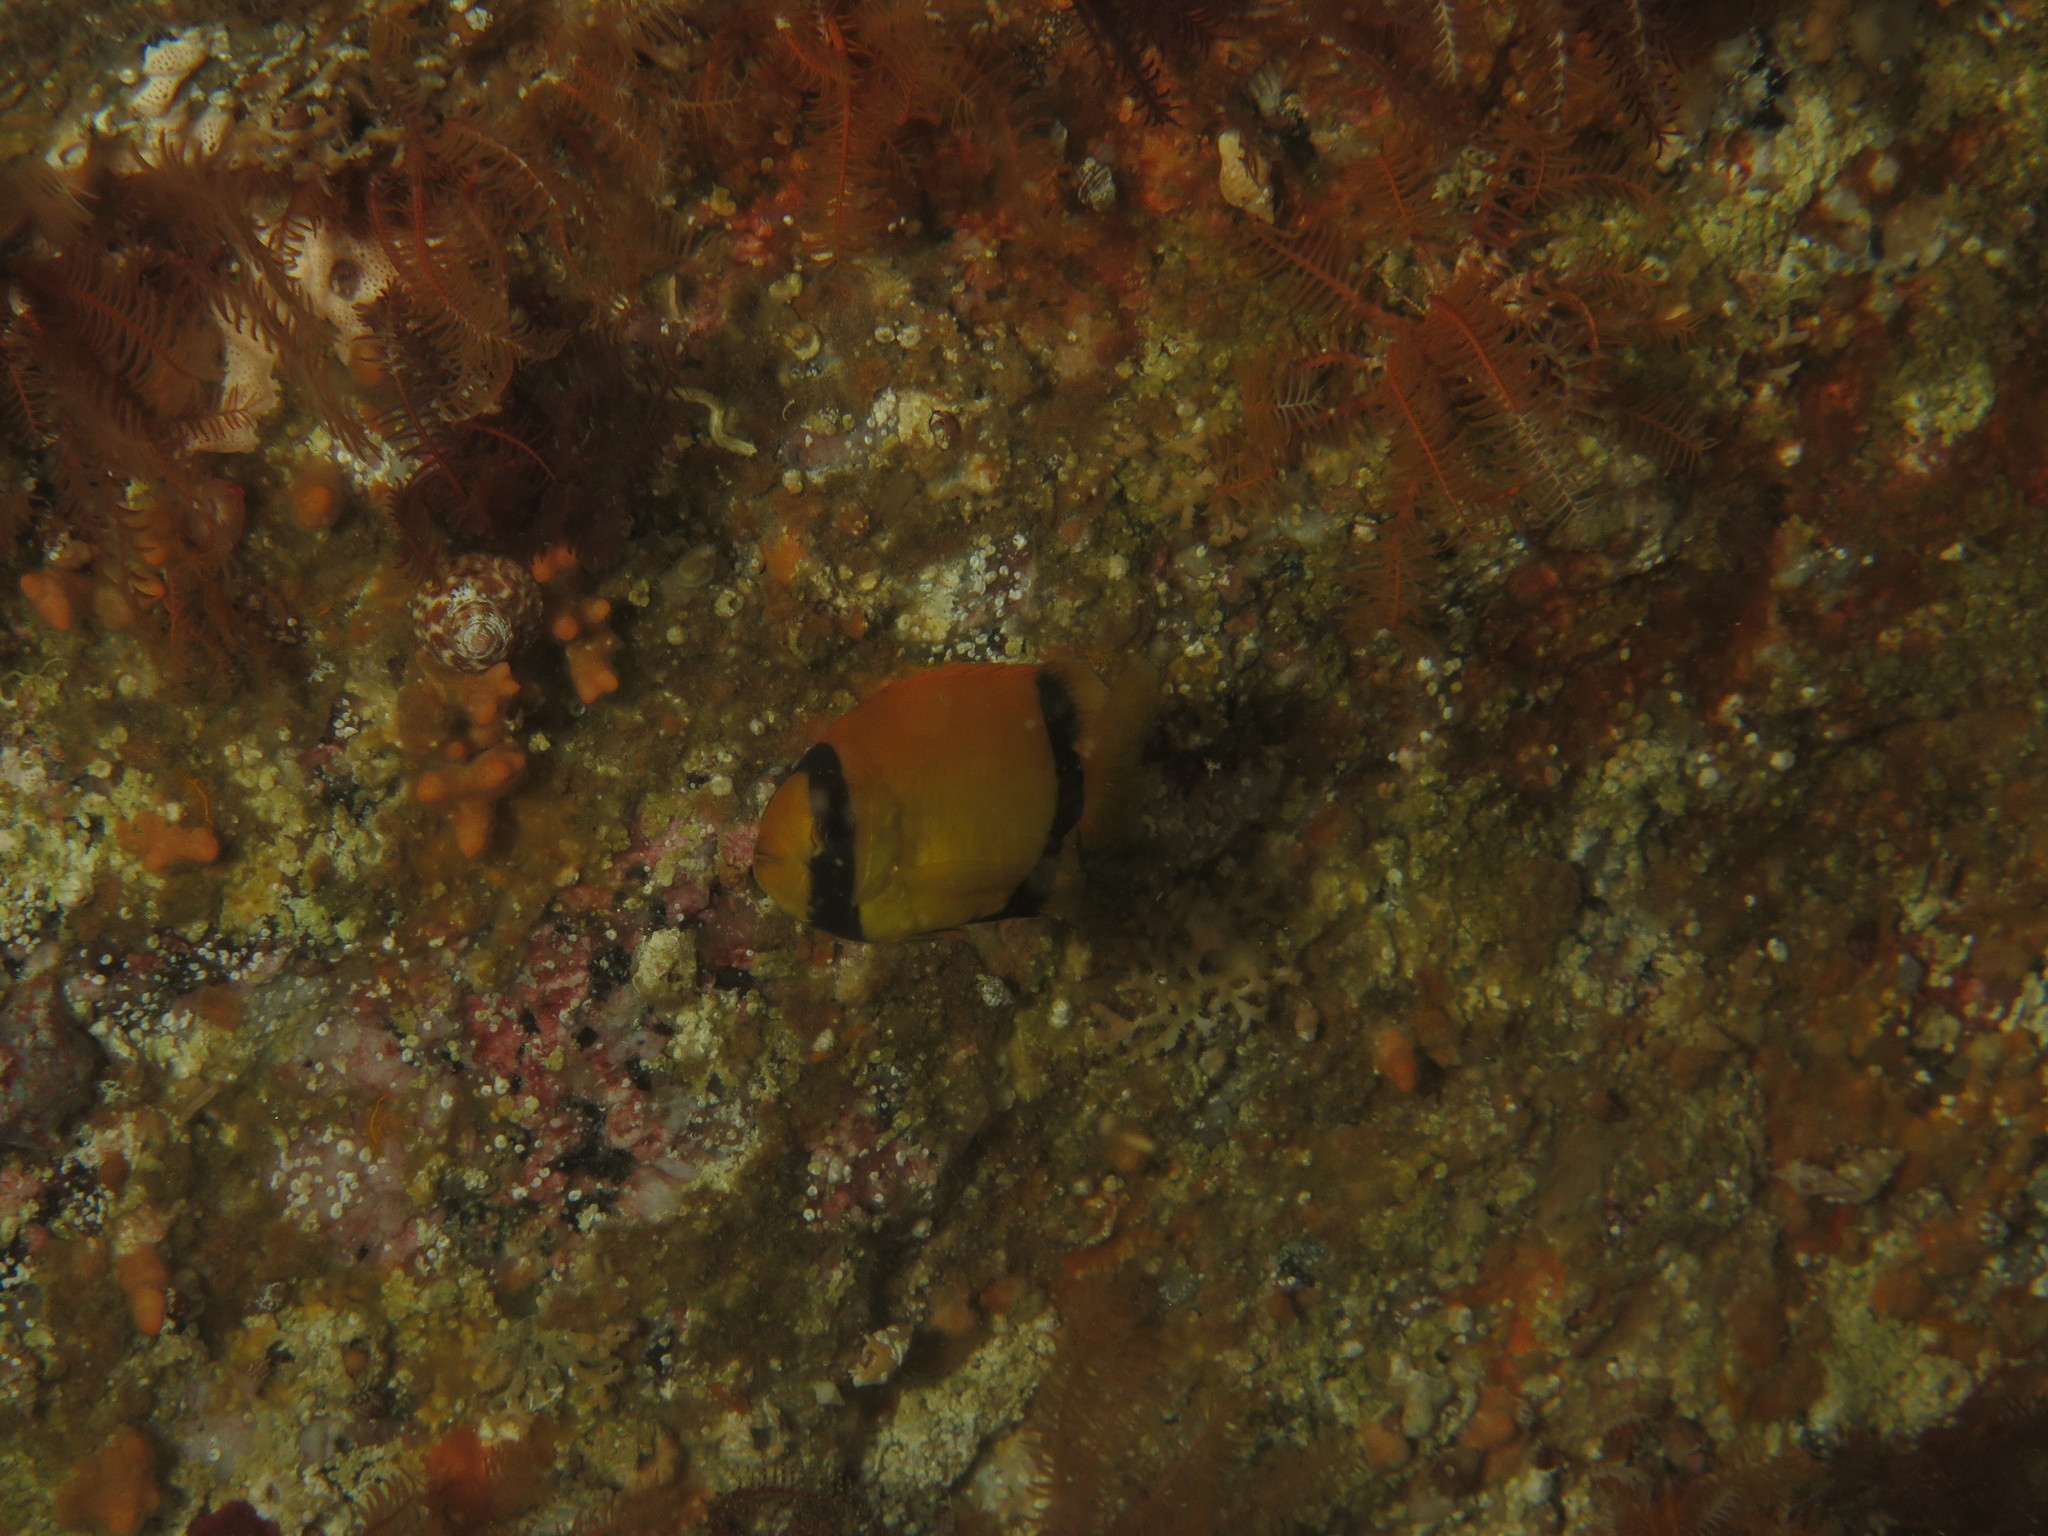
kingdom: Animalia
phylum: Chordata
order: Perciformes
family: Oplegnathidae
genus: Oplegnathus
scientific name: Oplegnathus conwayi
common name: Cape knifejaw
